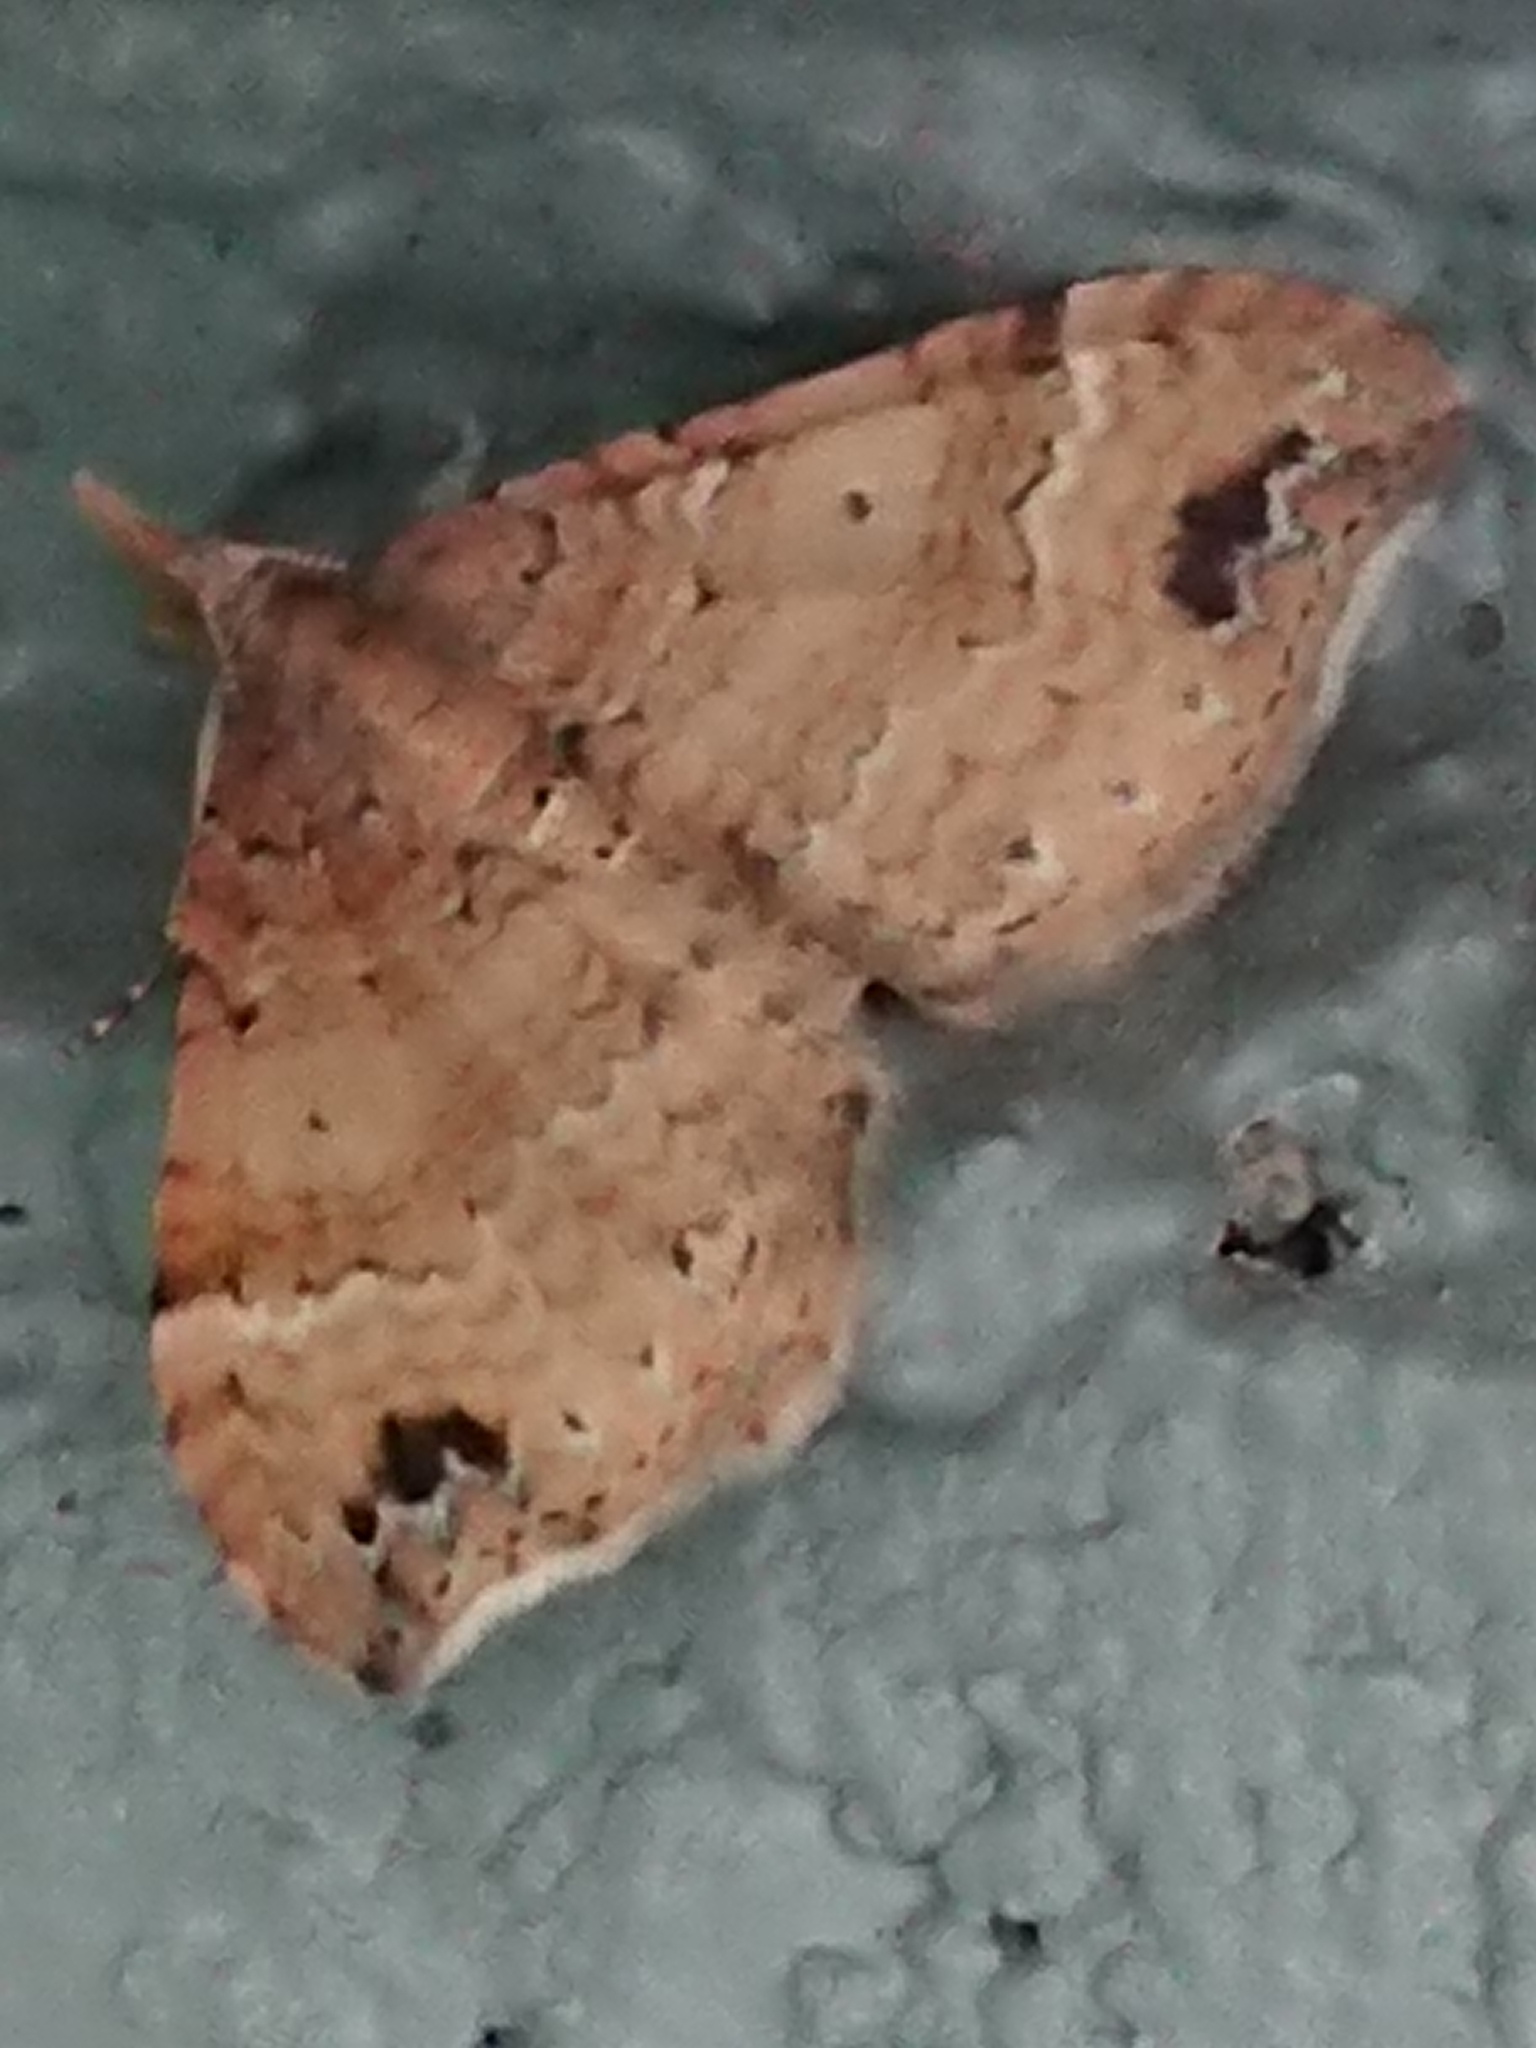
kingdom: Animalia
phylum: Arthropoda
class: Insecta
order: Lepidoptera
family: Geometridae
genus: Homodotis
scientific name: Homodotis megaspilata
